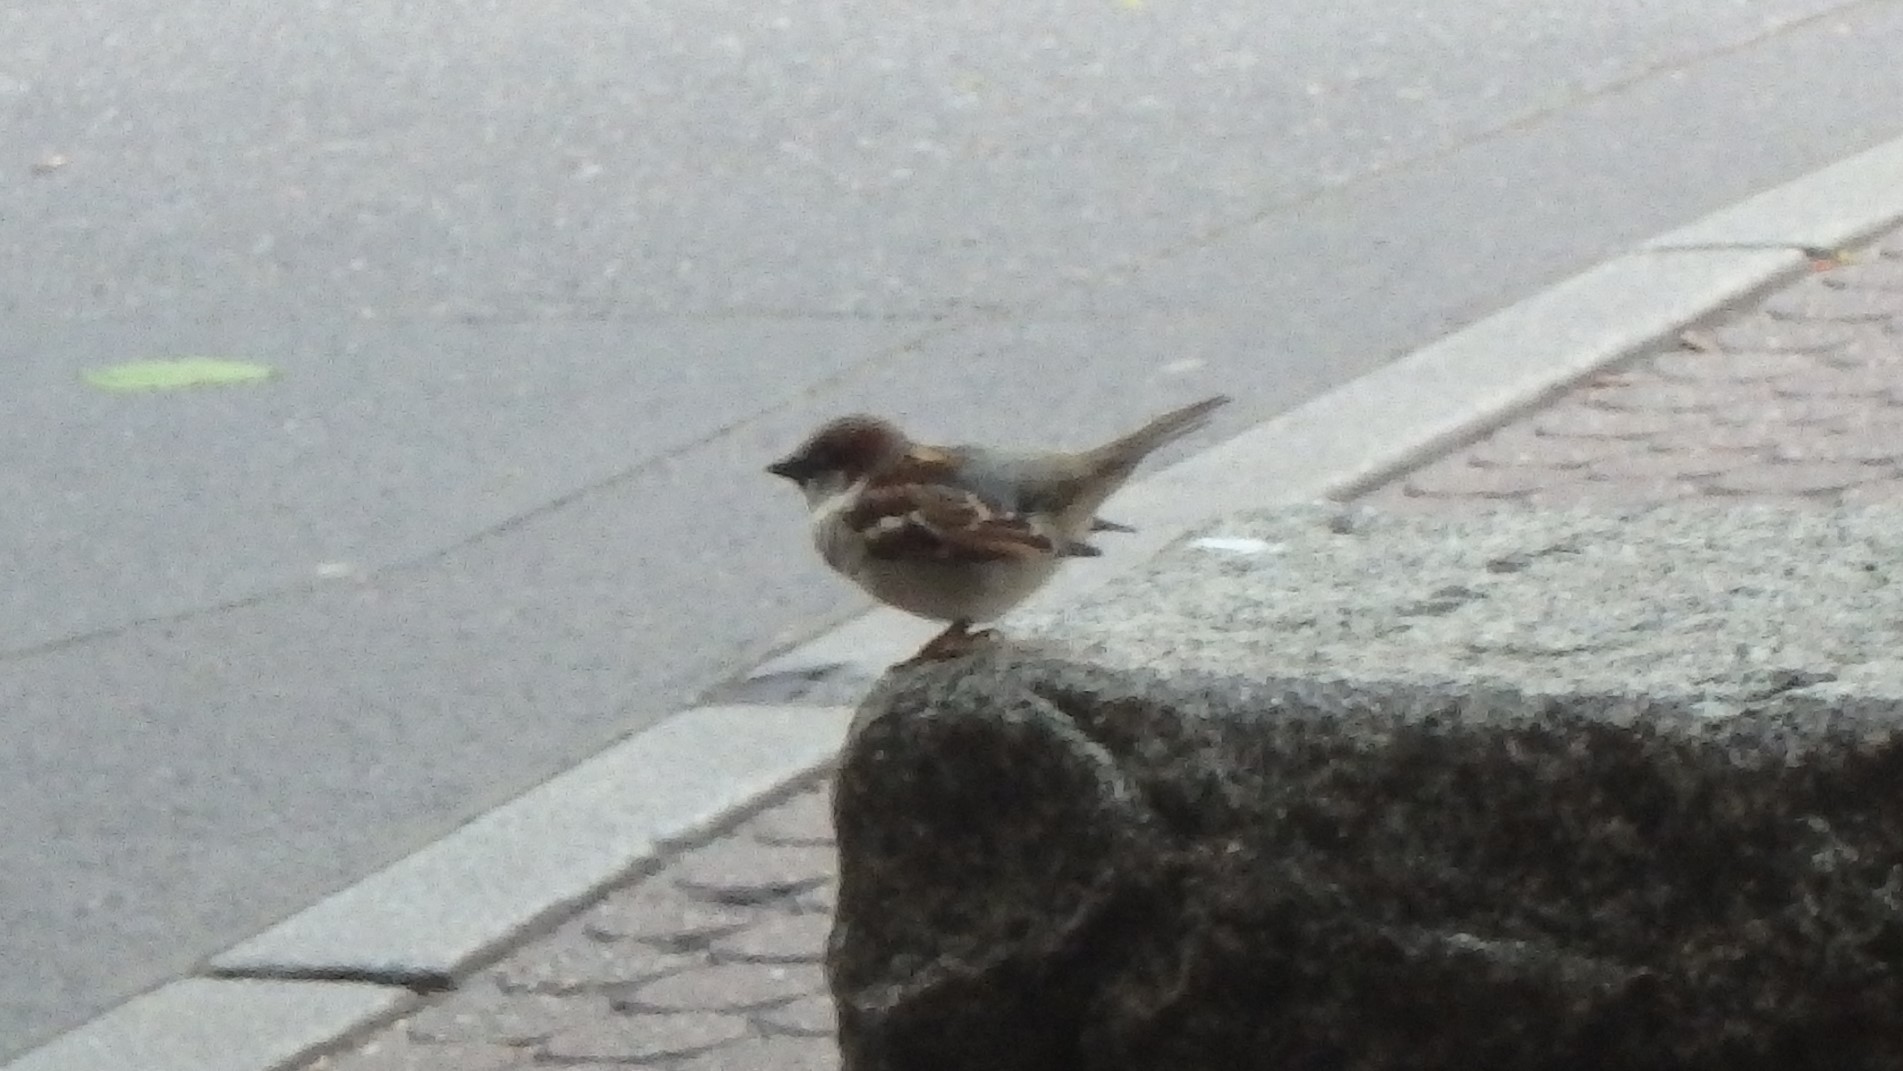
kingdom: Animalia
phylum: Chordata
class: Aves
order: Passeriformes
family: Passeridae
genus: Passer
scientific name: Passer domesticus
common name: House sparrow
